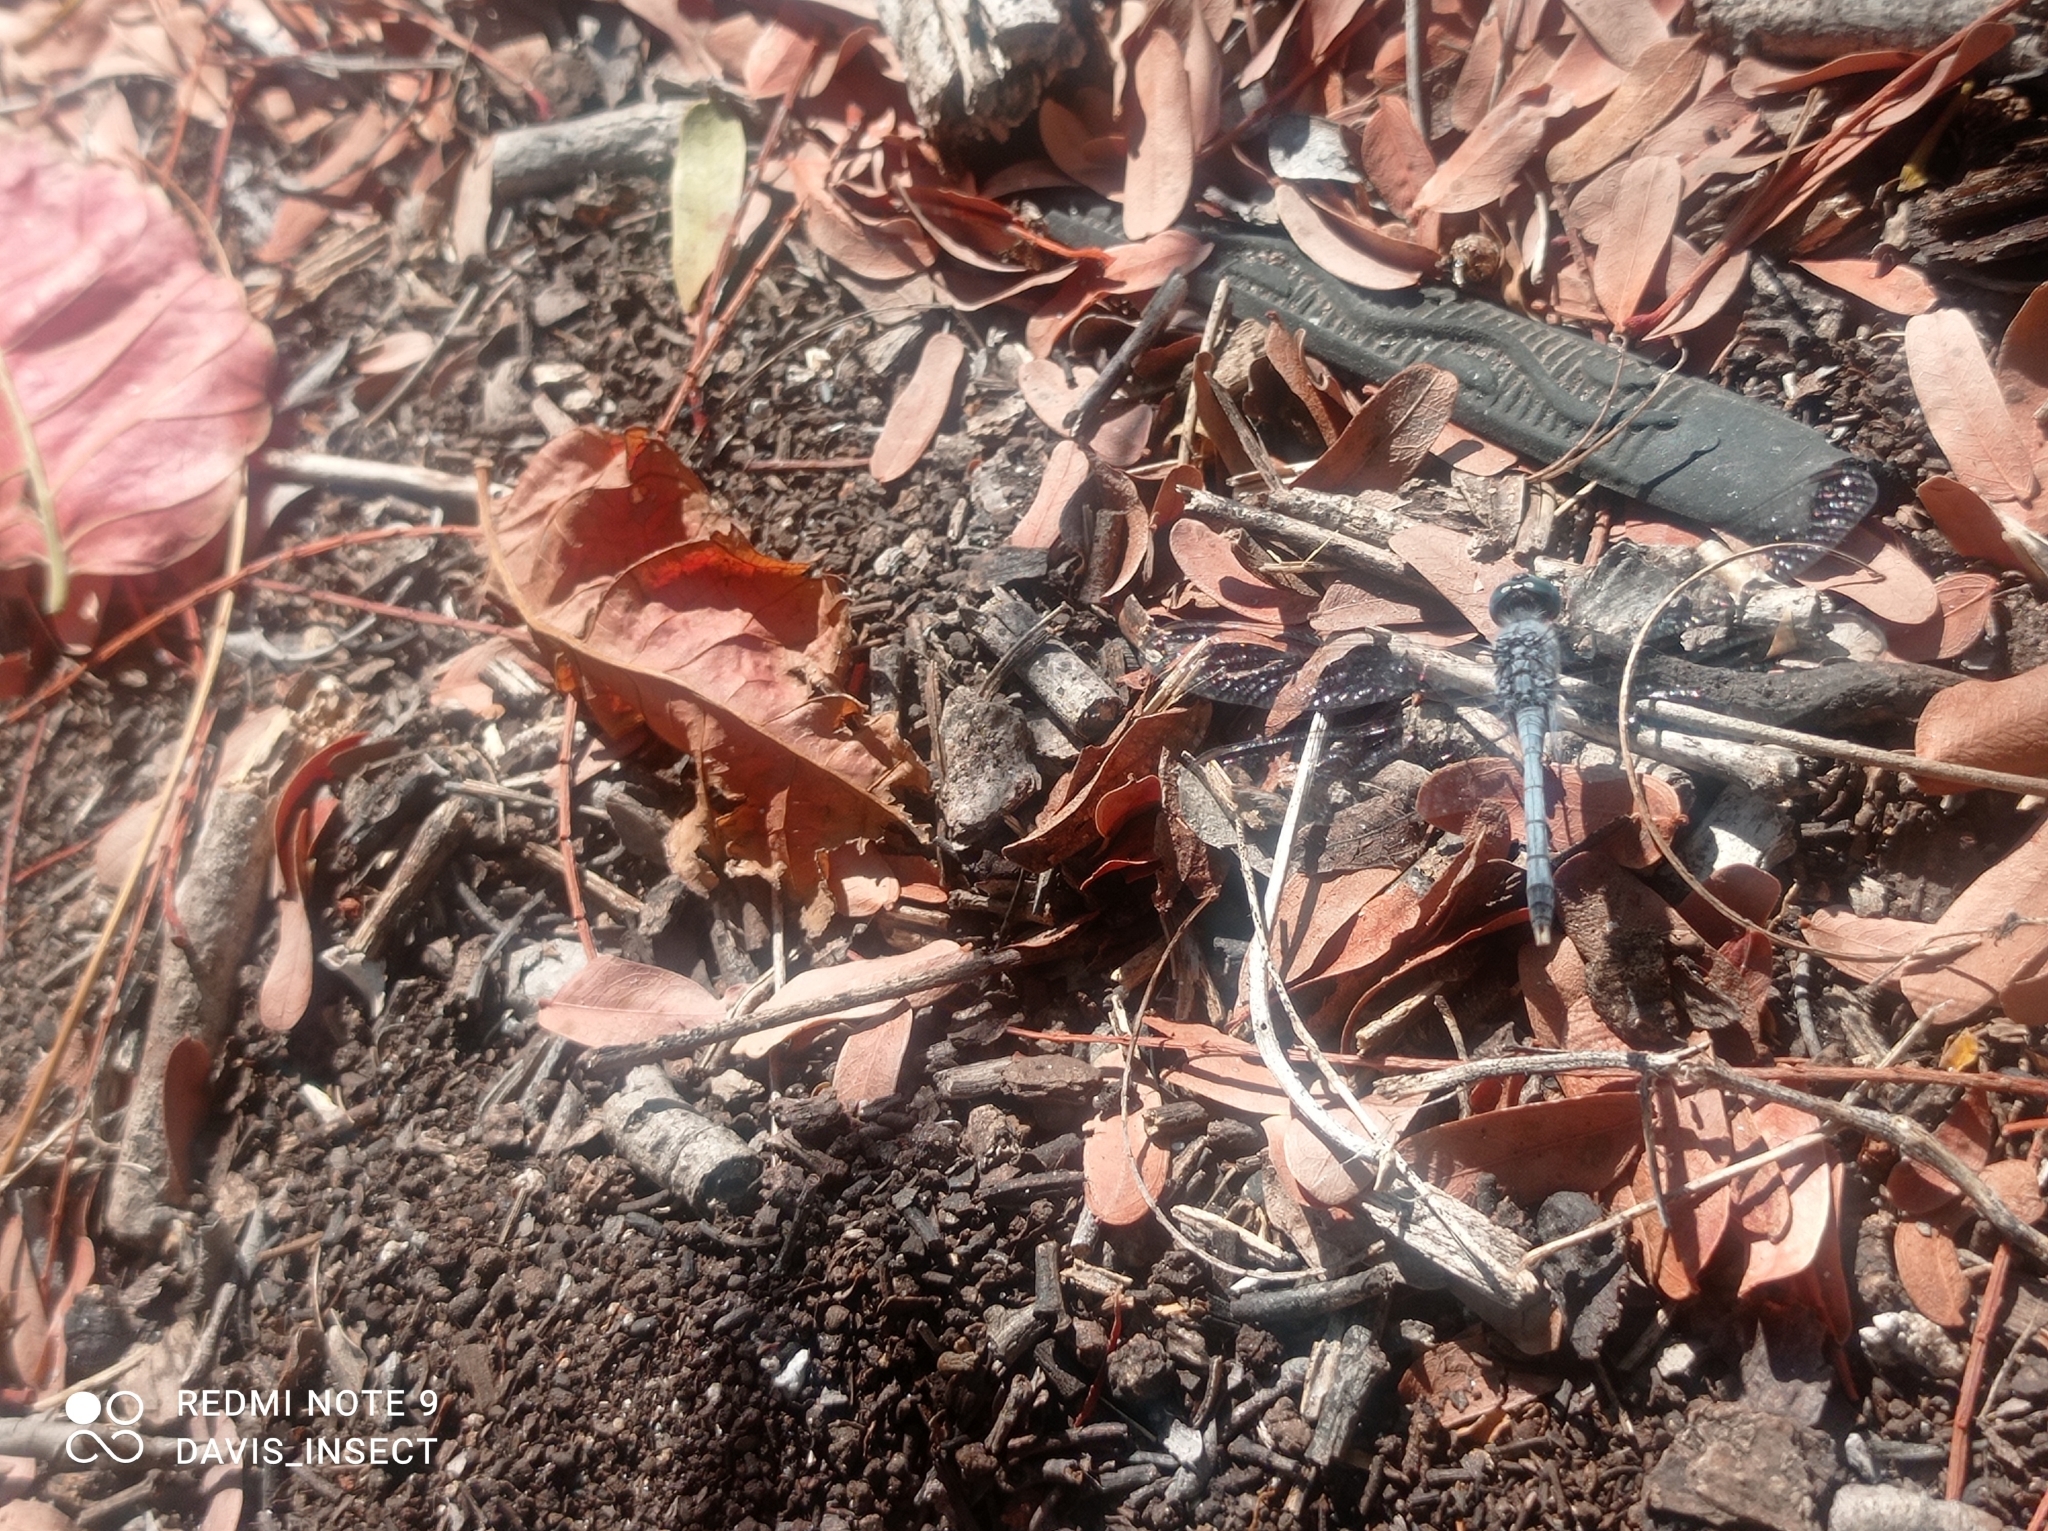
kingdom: Animalia
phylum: Arthropoda
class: Insecta
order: Odonata
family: Libellulidae
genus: Diplacodes
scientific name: Diplacodes trivialis
